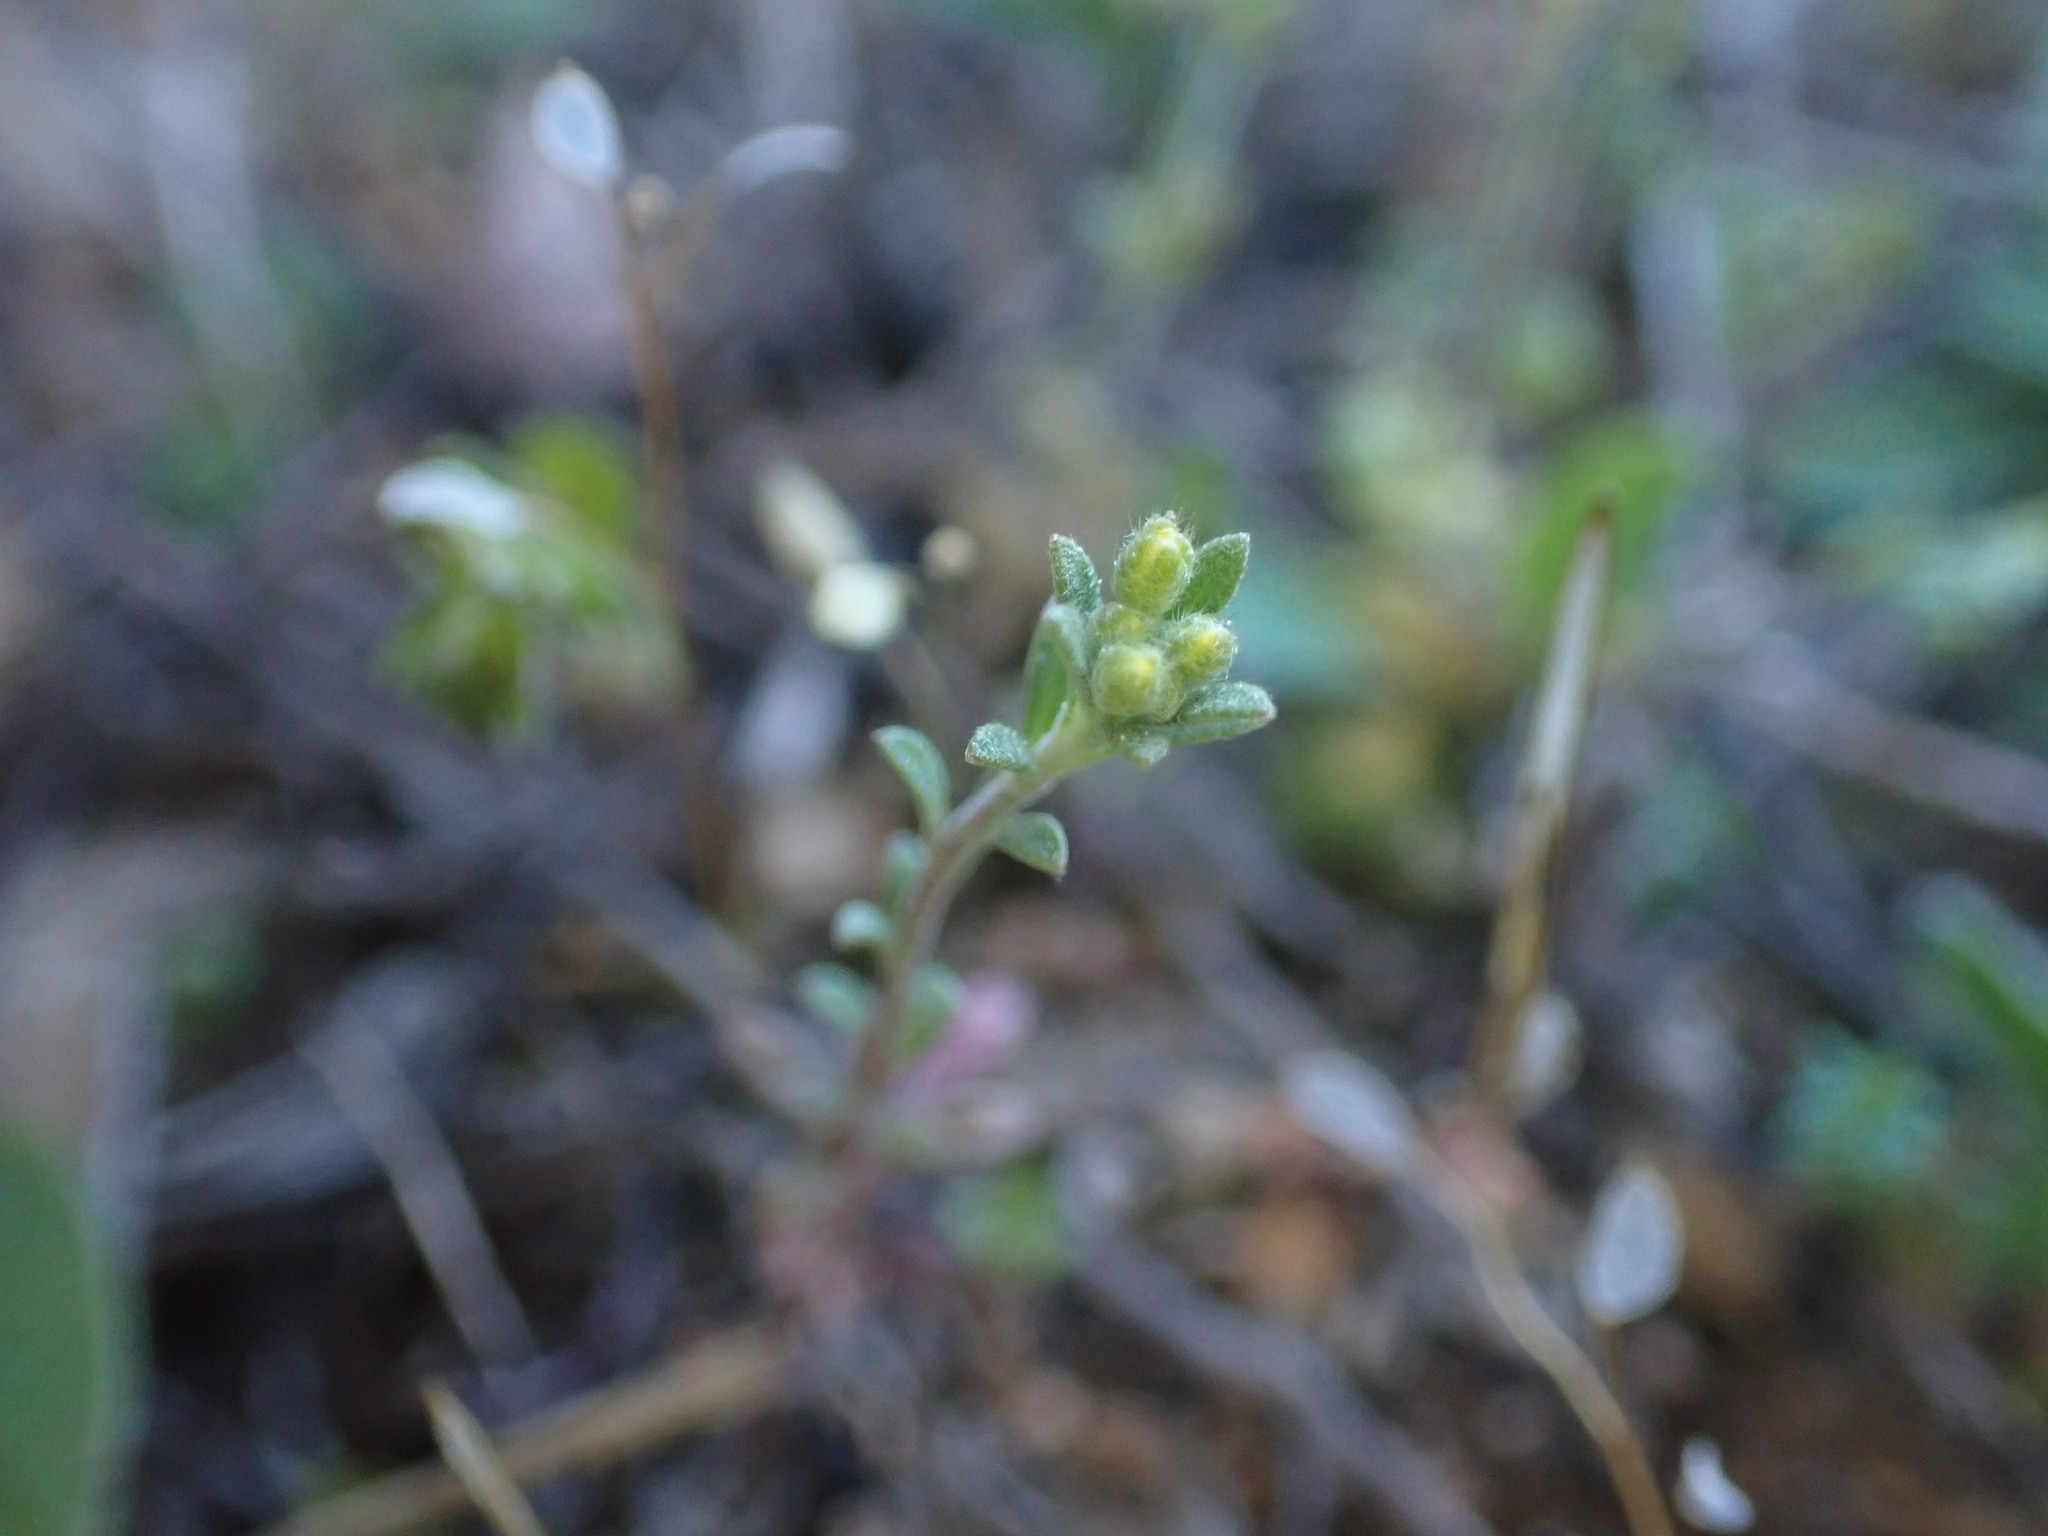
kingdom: Plantae
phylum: Tracheophyta
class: Magnoliopsida
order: Brassicales
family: Brassicaceae
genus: Alyssum
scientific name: Alyssum alyssoides
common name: Small alison
